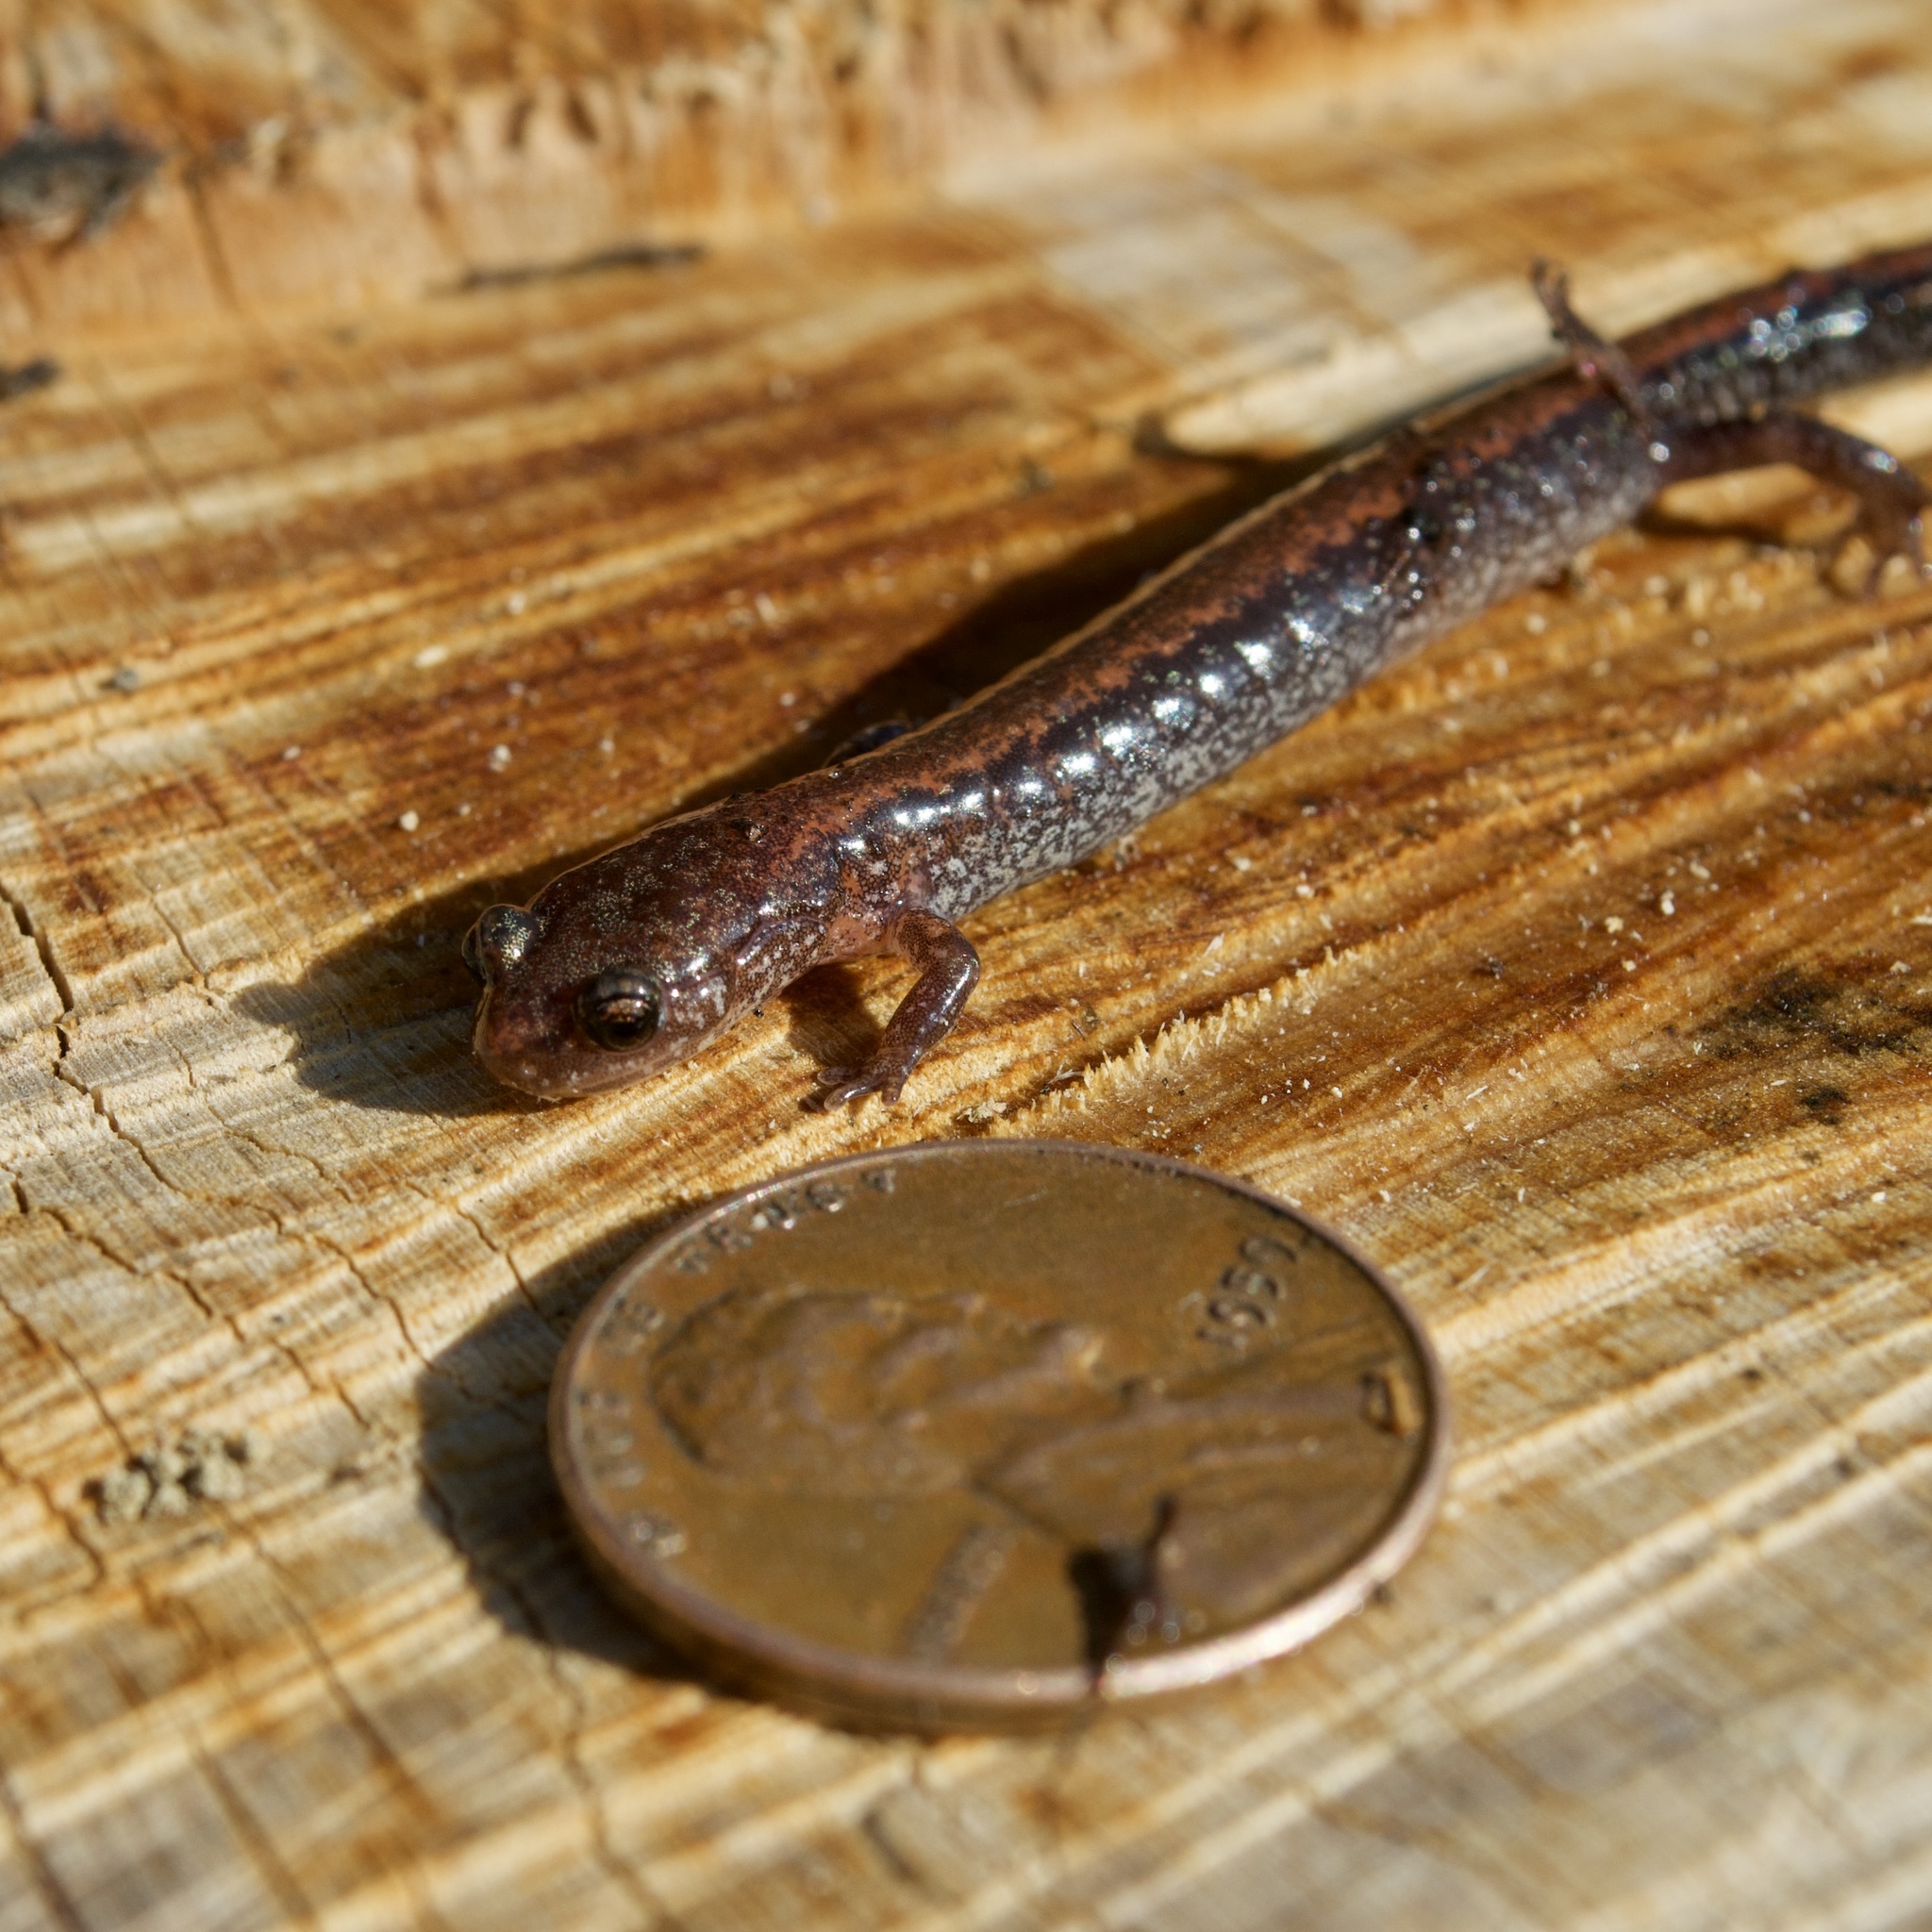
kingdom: Animalia
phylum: Chordata
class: Amphibia
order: Caudata
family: Plethodontidae
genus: Plethodon
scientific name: Plethodon cinereus
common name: Redback salamander
